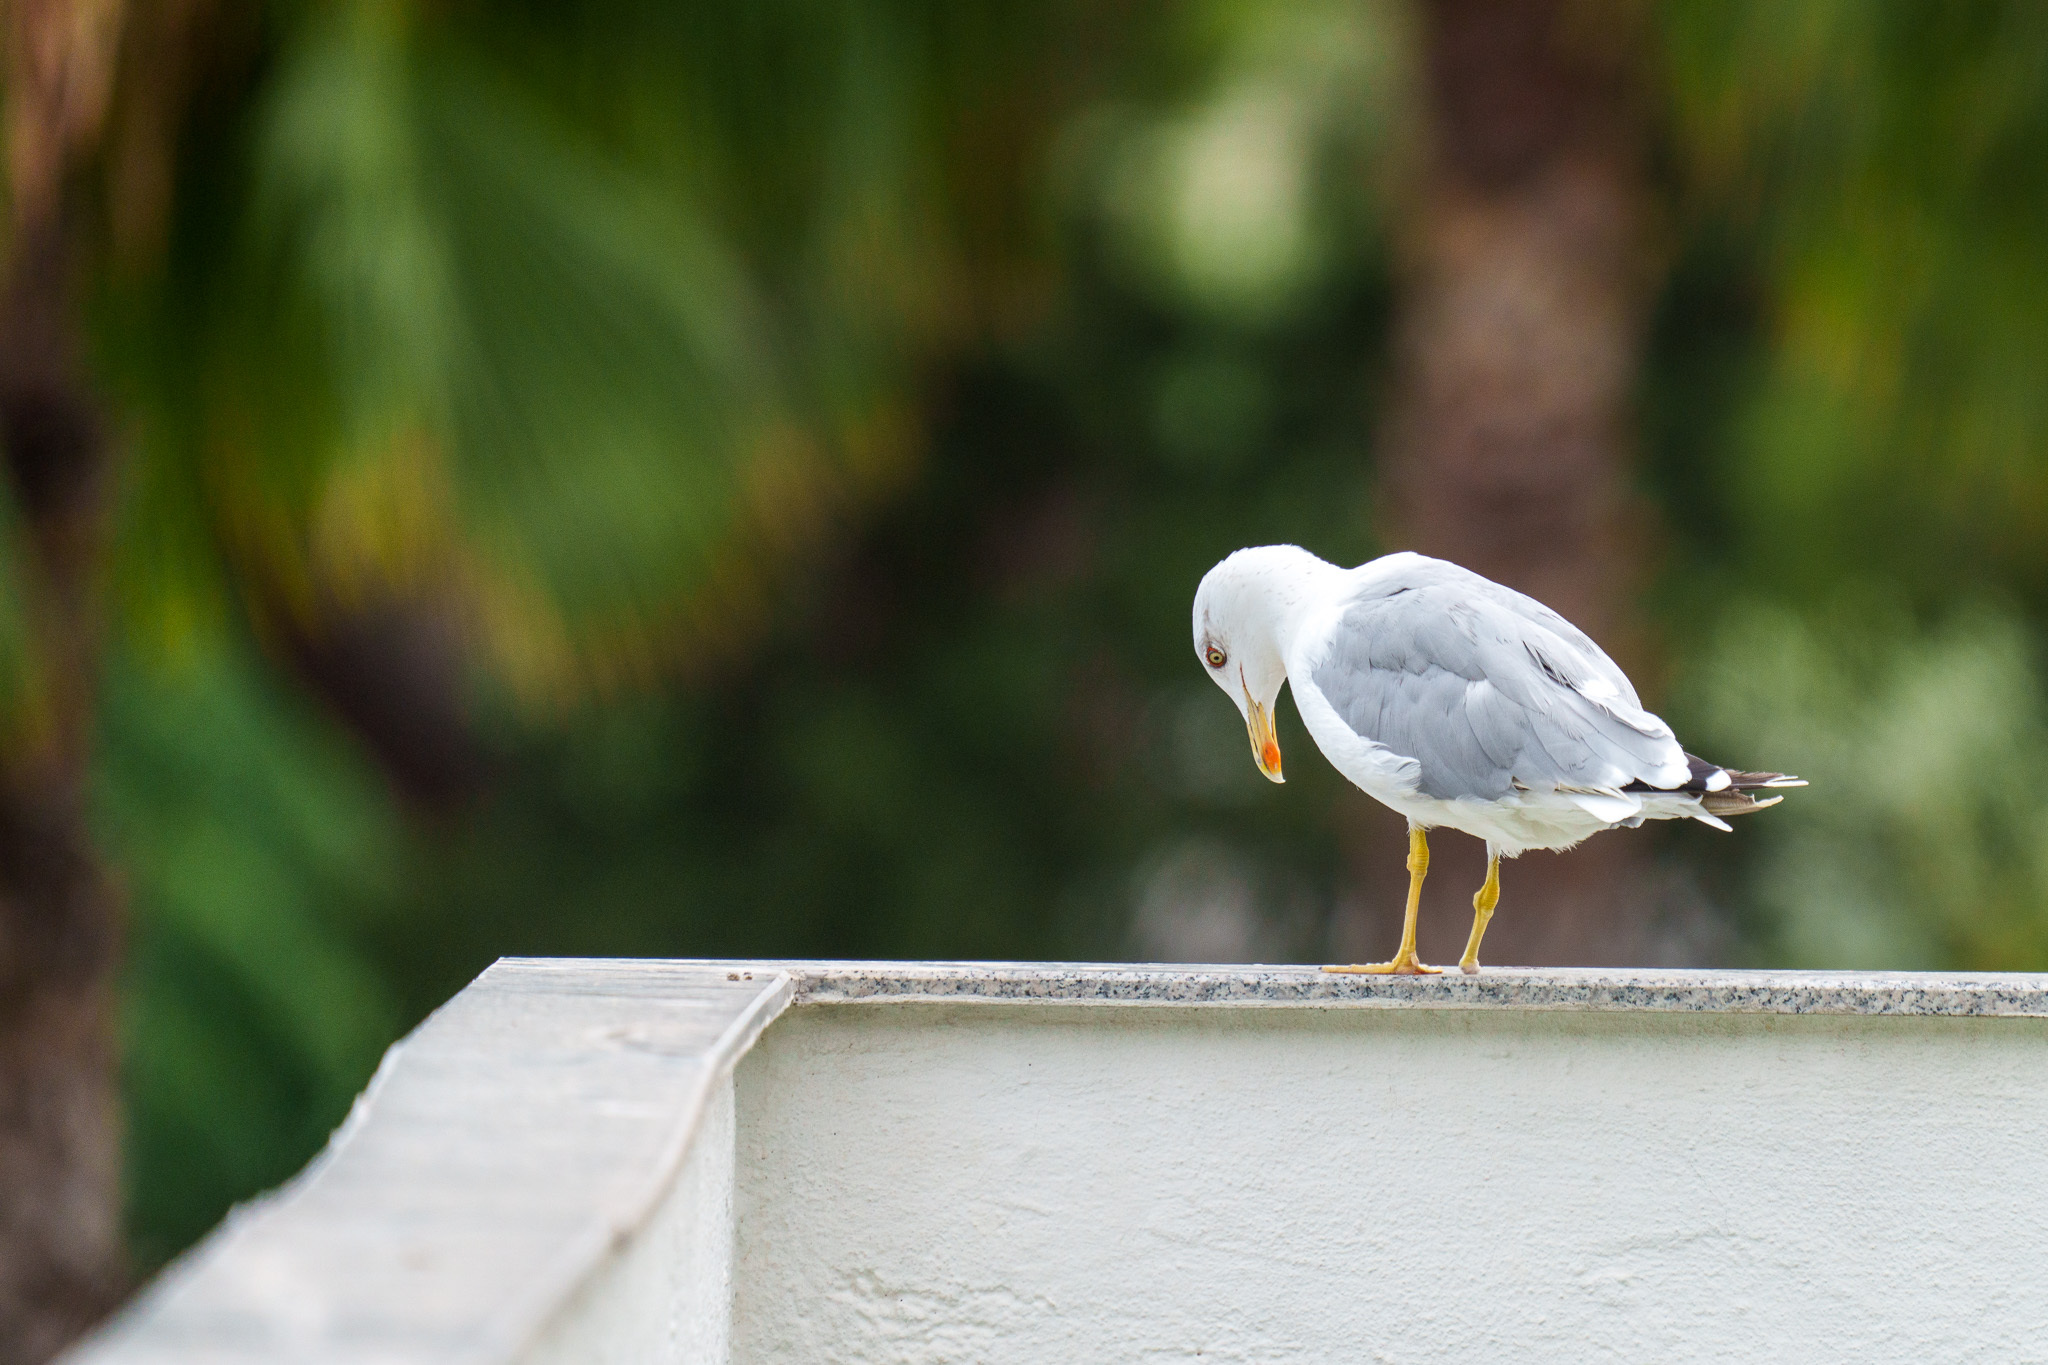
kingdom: Animalia
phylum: Chordata
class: Aves
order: Charadriiformes
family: Laridae
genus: Larus
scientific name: Larus michahellis
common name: Yellow-legged gull
